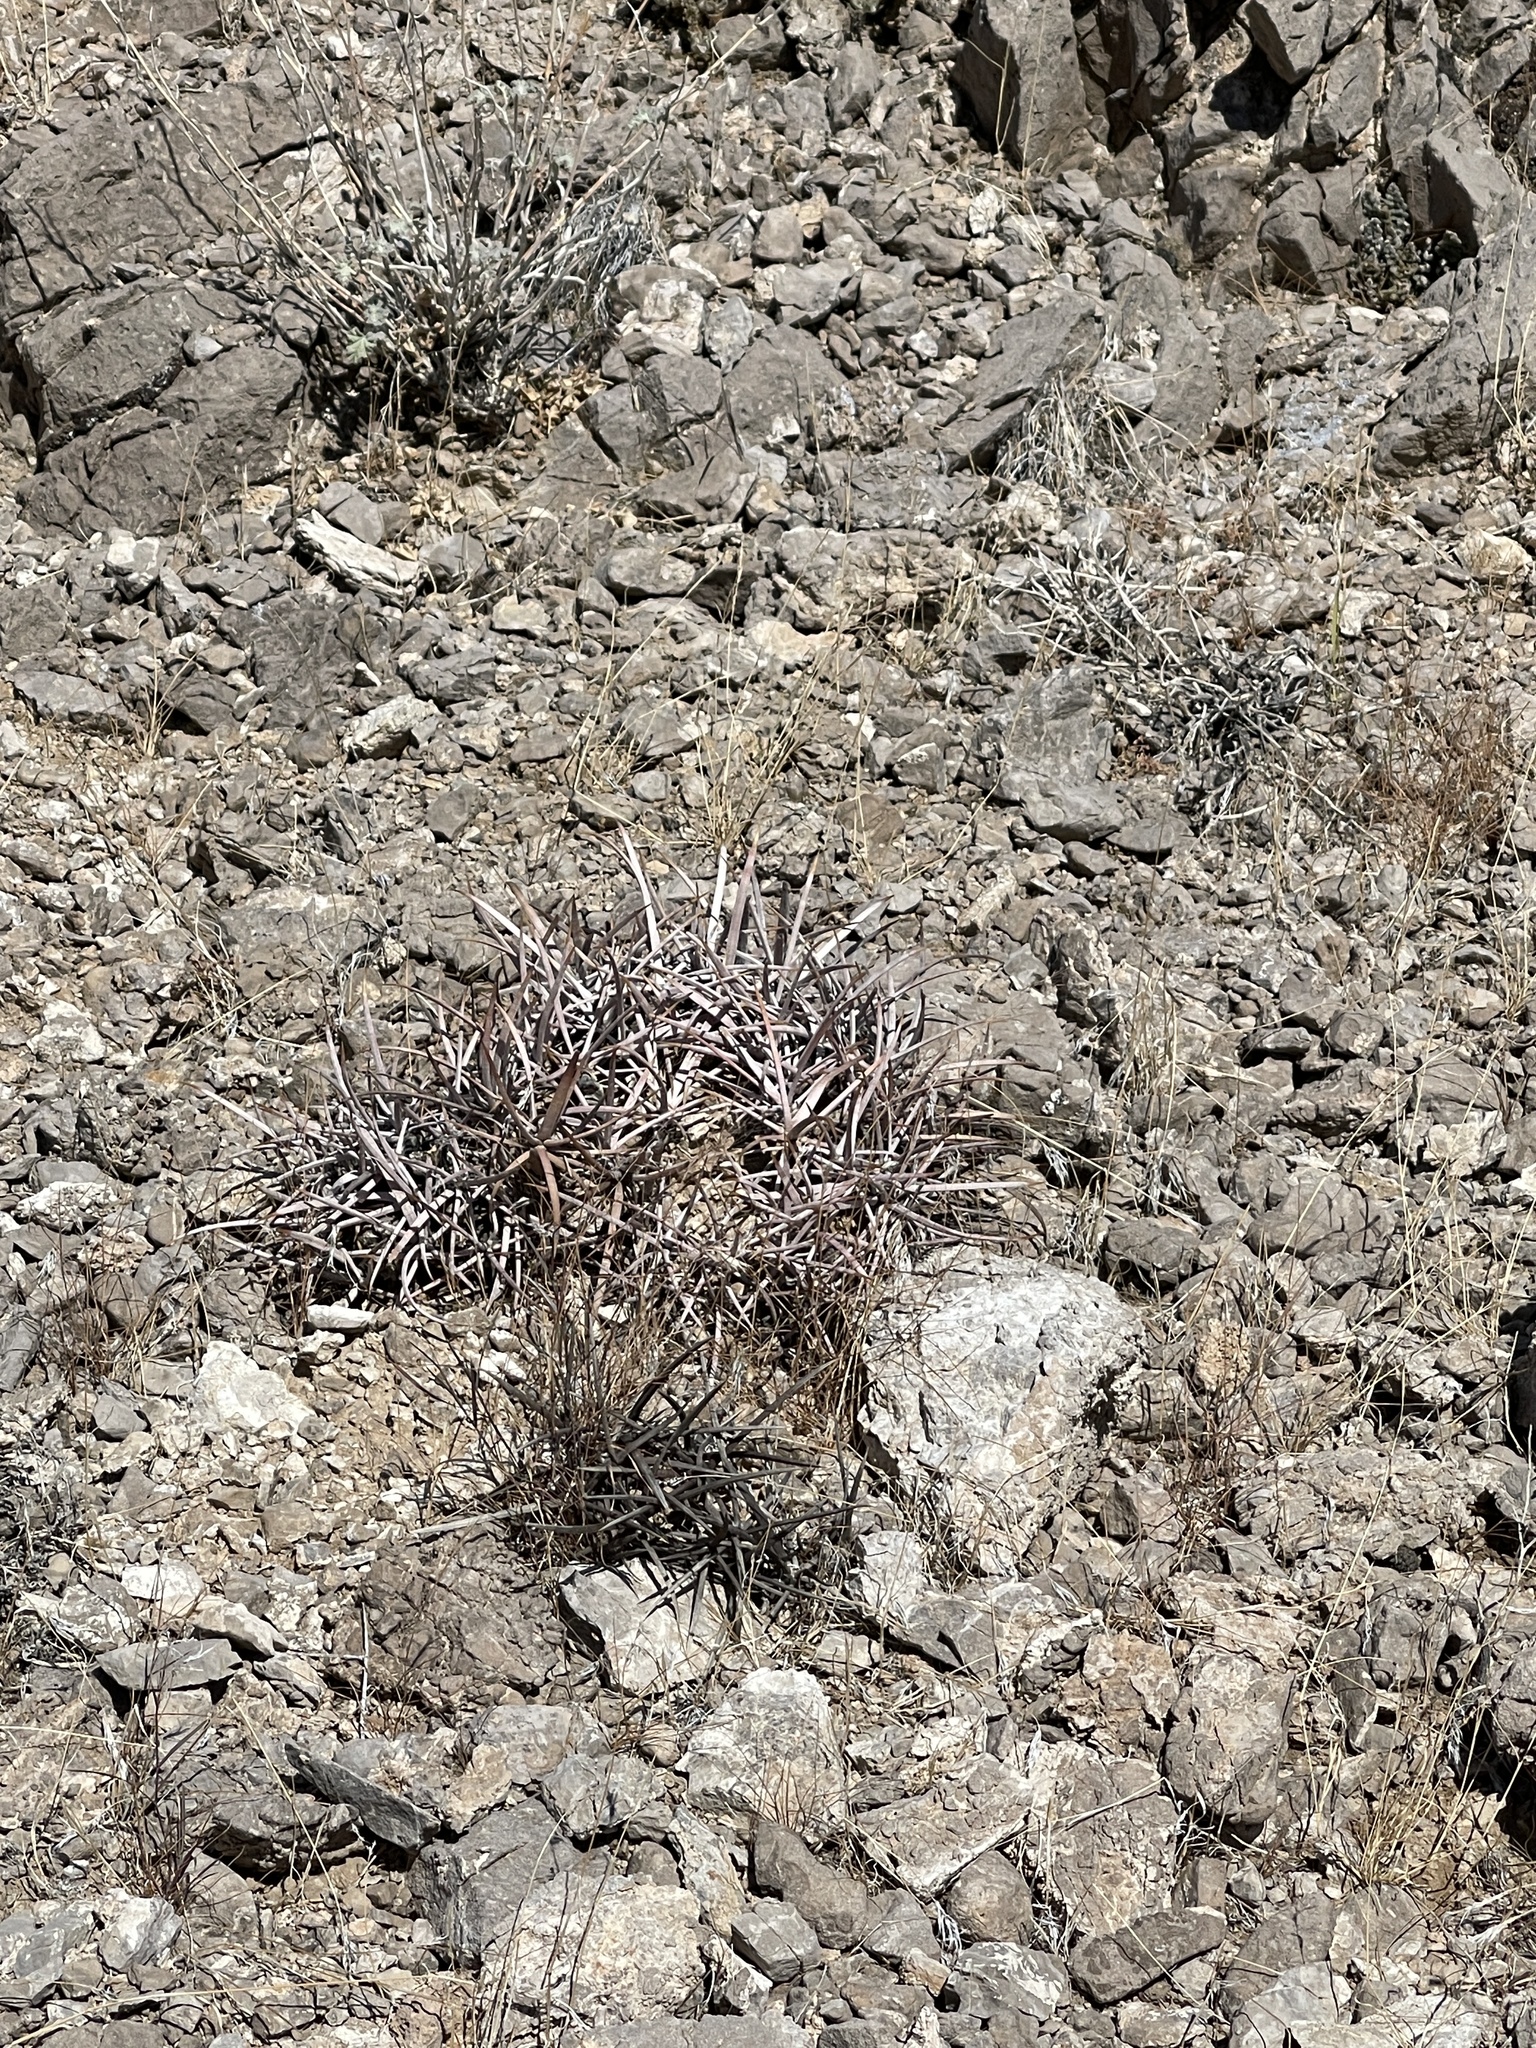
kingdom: Plantae
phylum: Tracheophyta
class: Magnoliopsida
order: Caryophyllales
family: Cactaceae
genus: Echinocactus
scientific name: Echinocactus polycephalus
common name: Cottontop cactus
